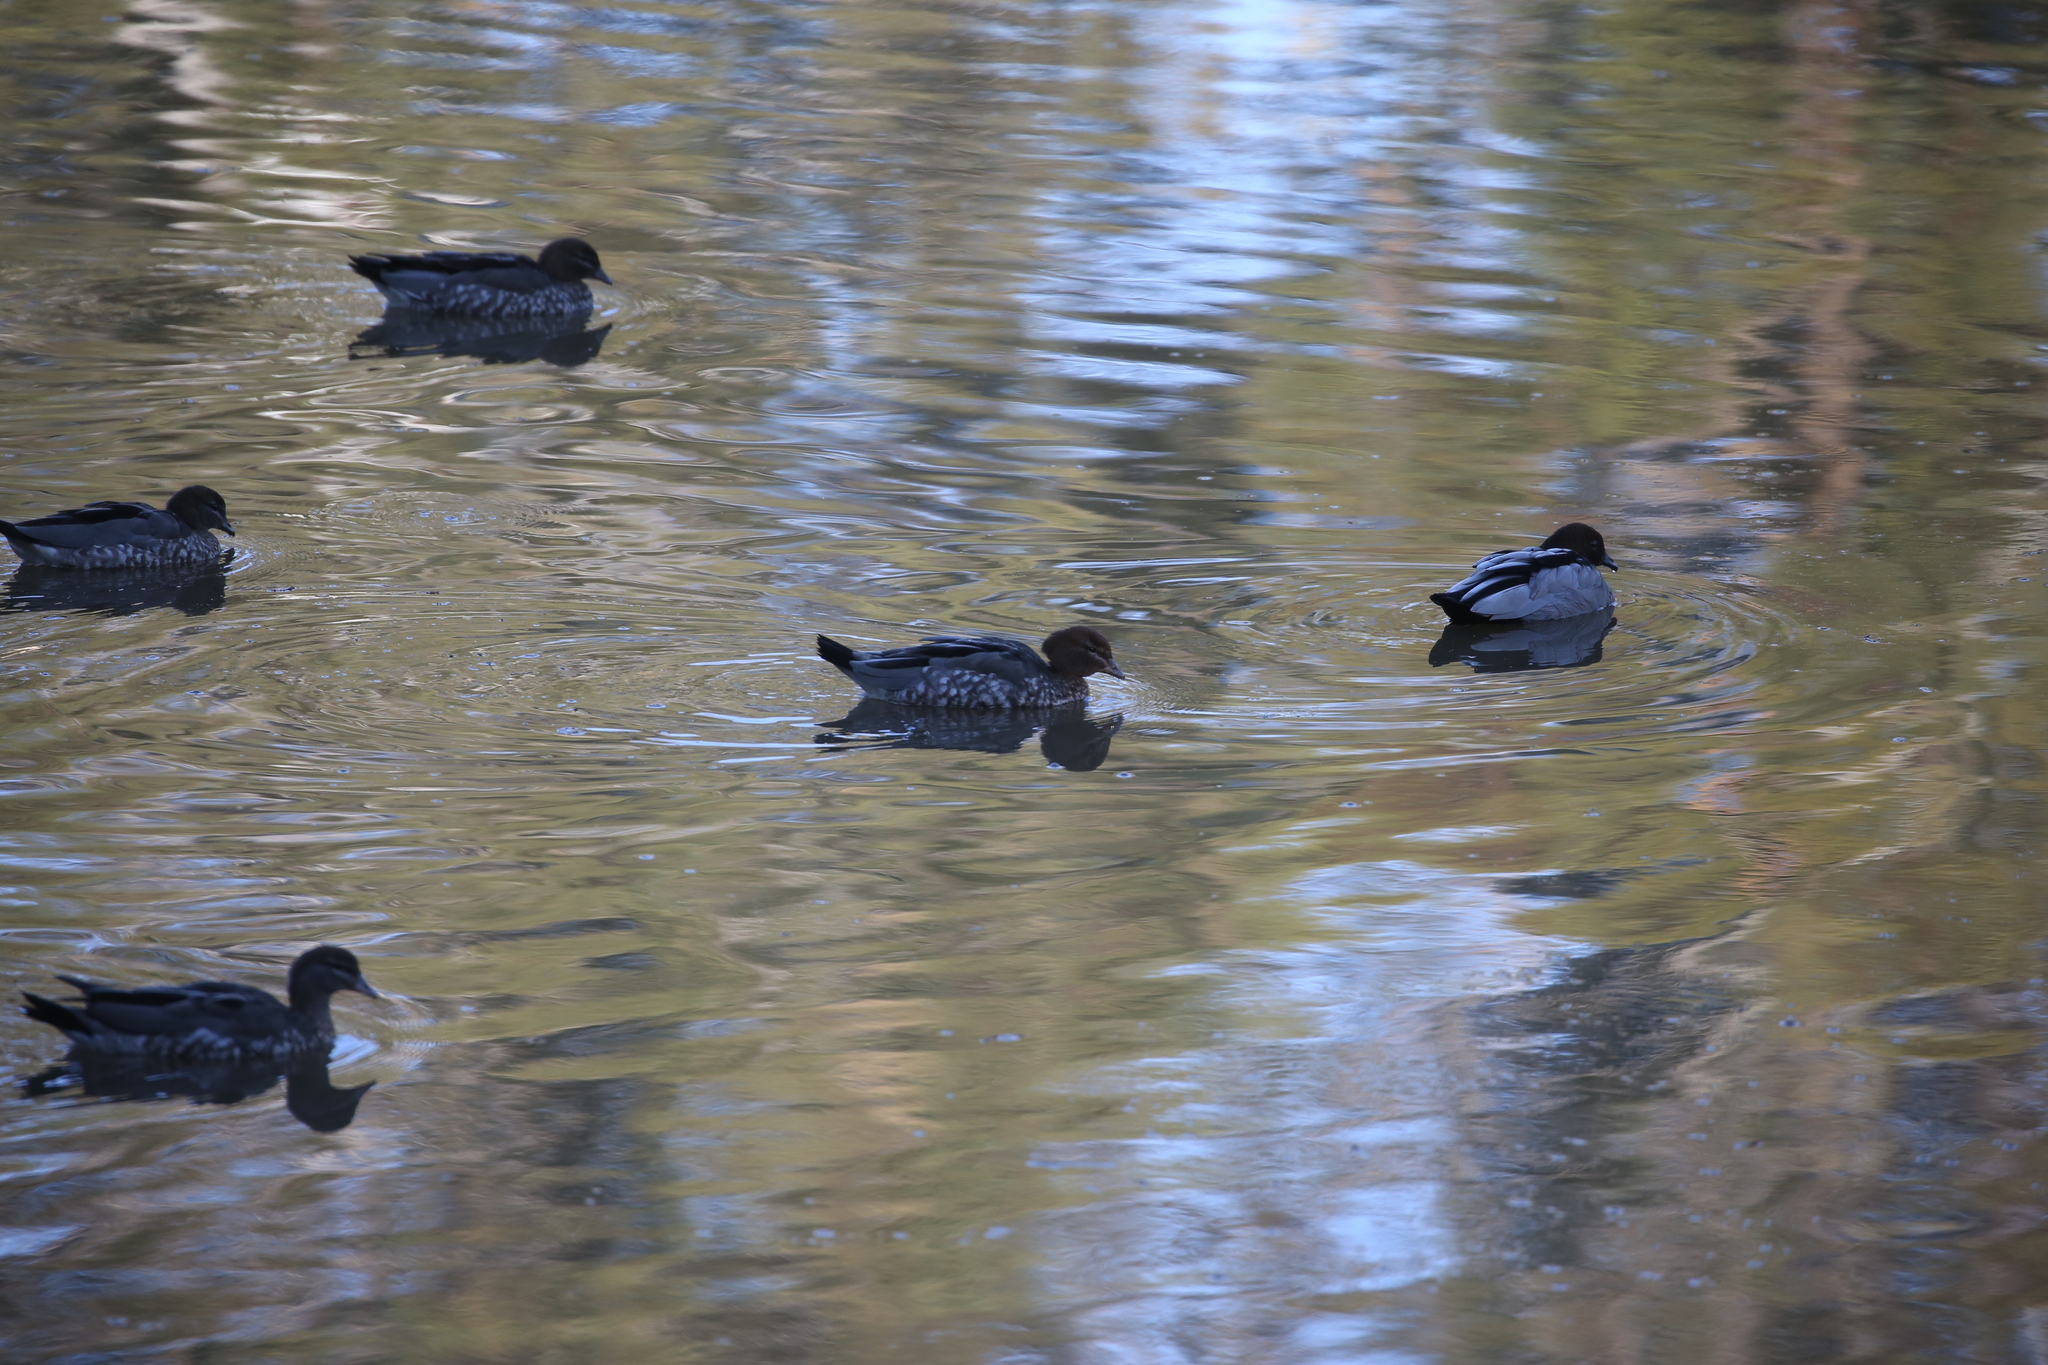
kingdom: Animalia
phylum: Chordata
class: Aves
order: Anseriformes
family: Anatidae
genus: Chenonetta
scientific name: Chenonetta jubata
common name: Maned duck
